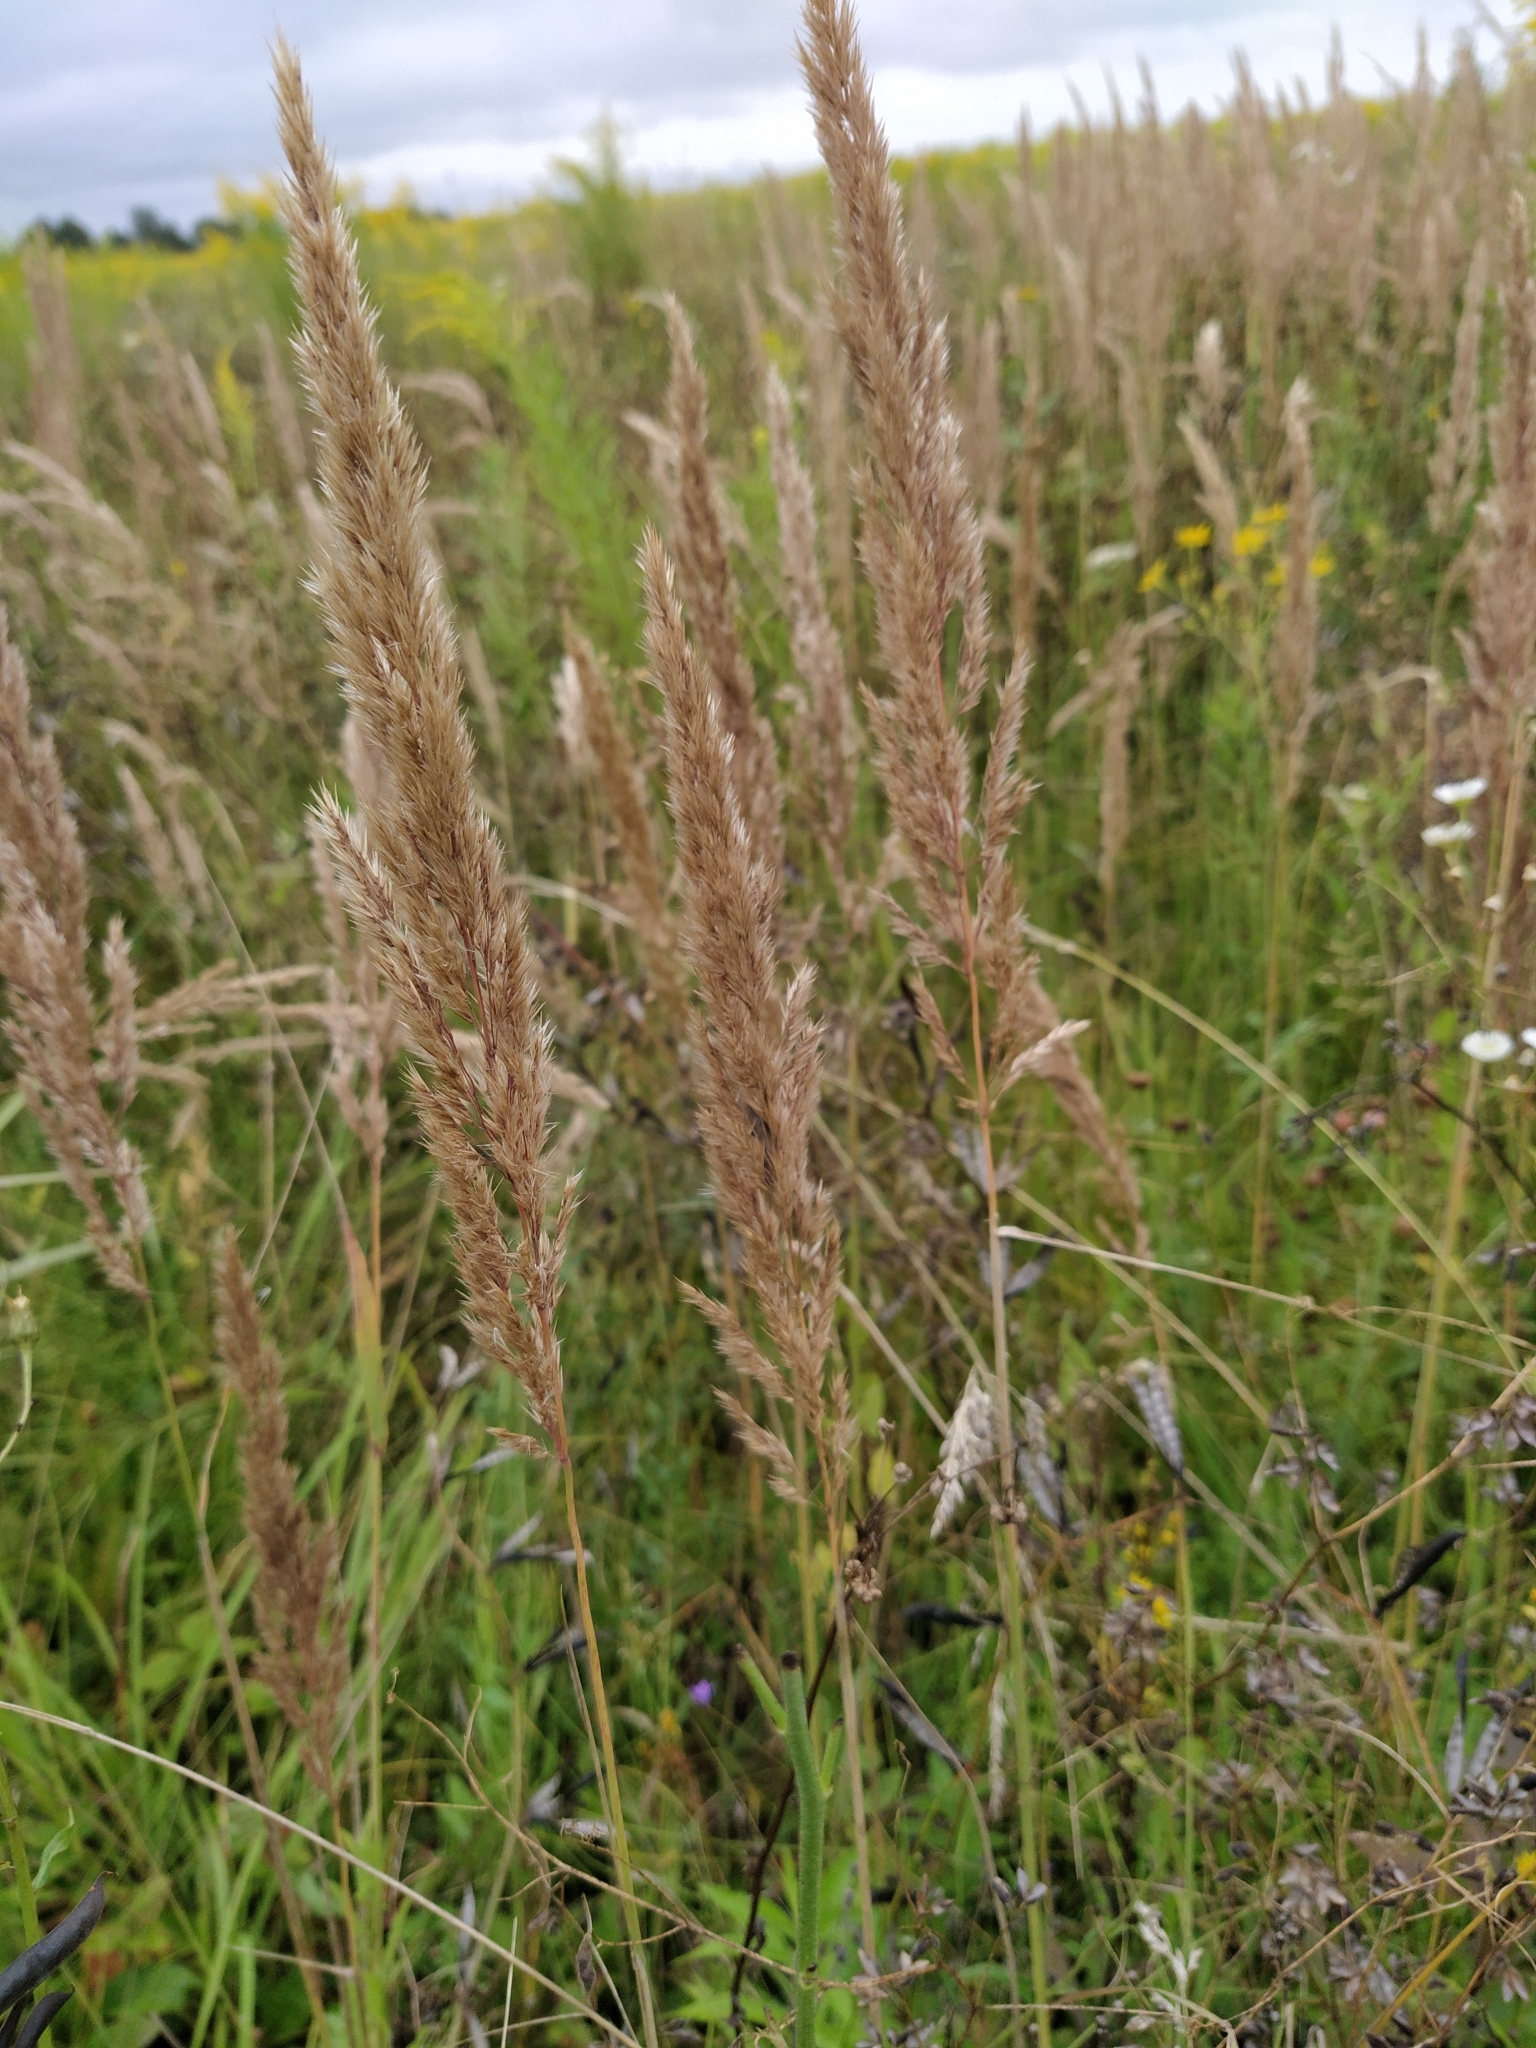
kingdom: Plantae
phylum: Tracheophyta
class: Liliopsida
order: Poales
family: Poaceae
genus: Calamagrostis
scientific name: Calamagrostis epigejos
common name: Wood small-reed
